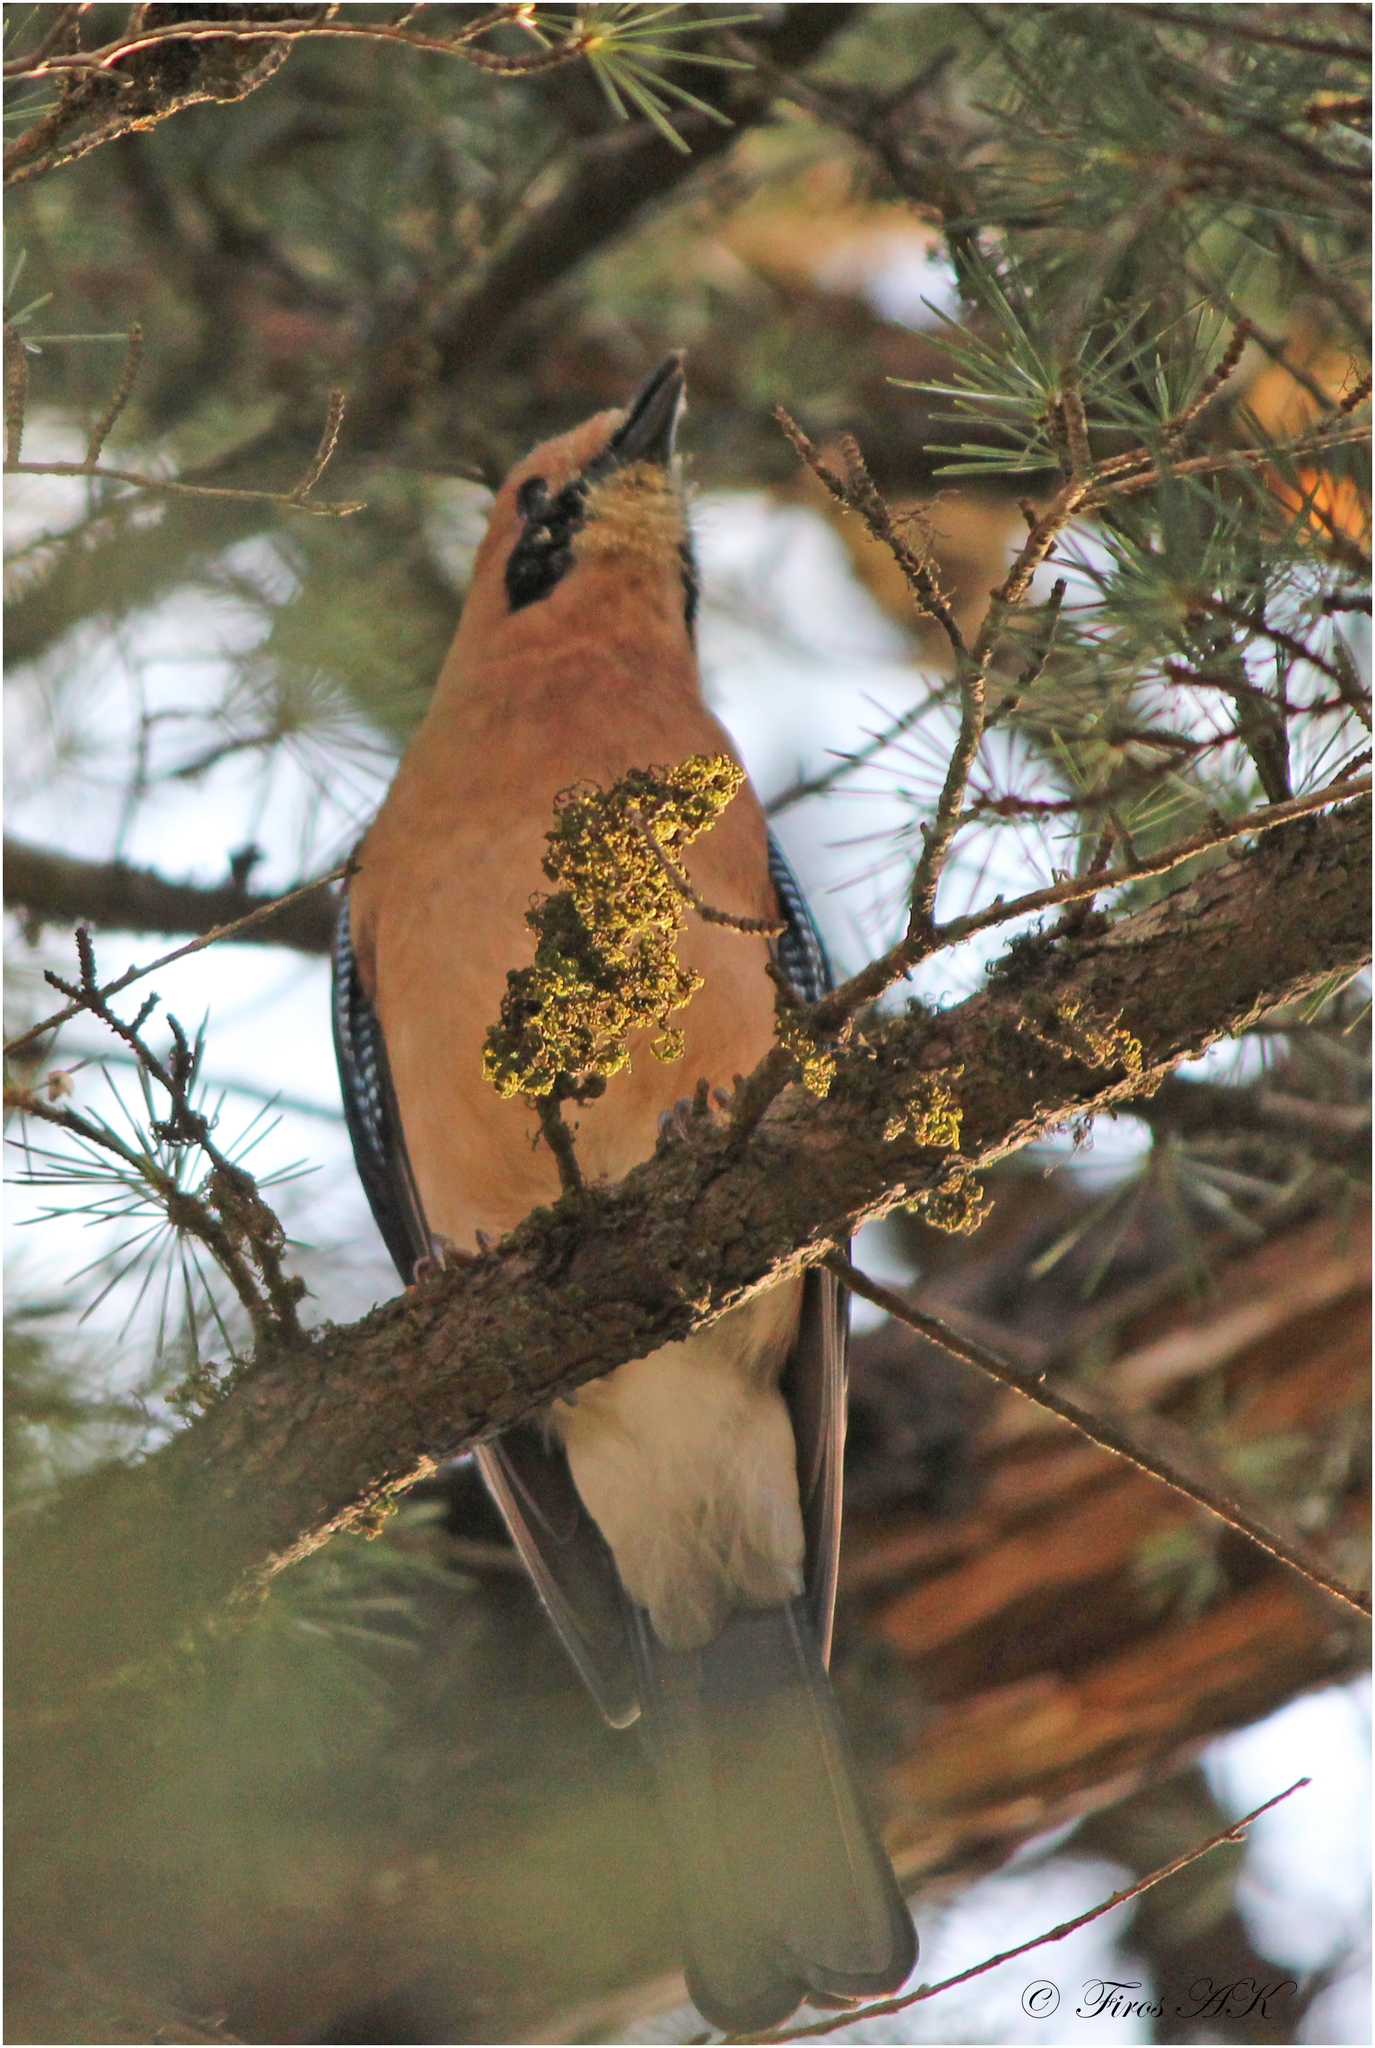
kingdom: Animalia
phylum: Chordata
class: Aves
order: Passeriformes
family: Corvidae
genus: Garrulus
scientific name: Garrulus glandarius
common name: Eurasian jay
